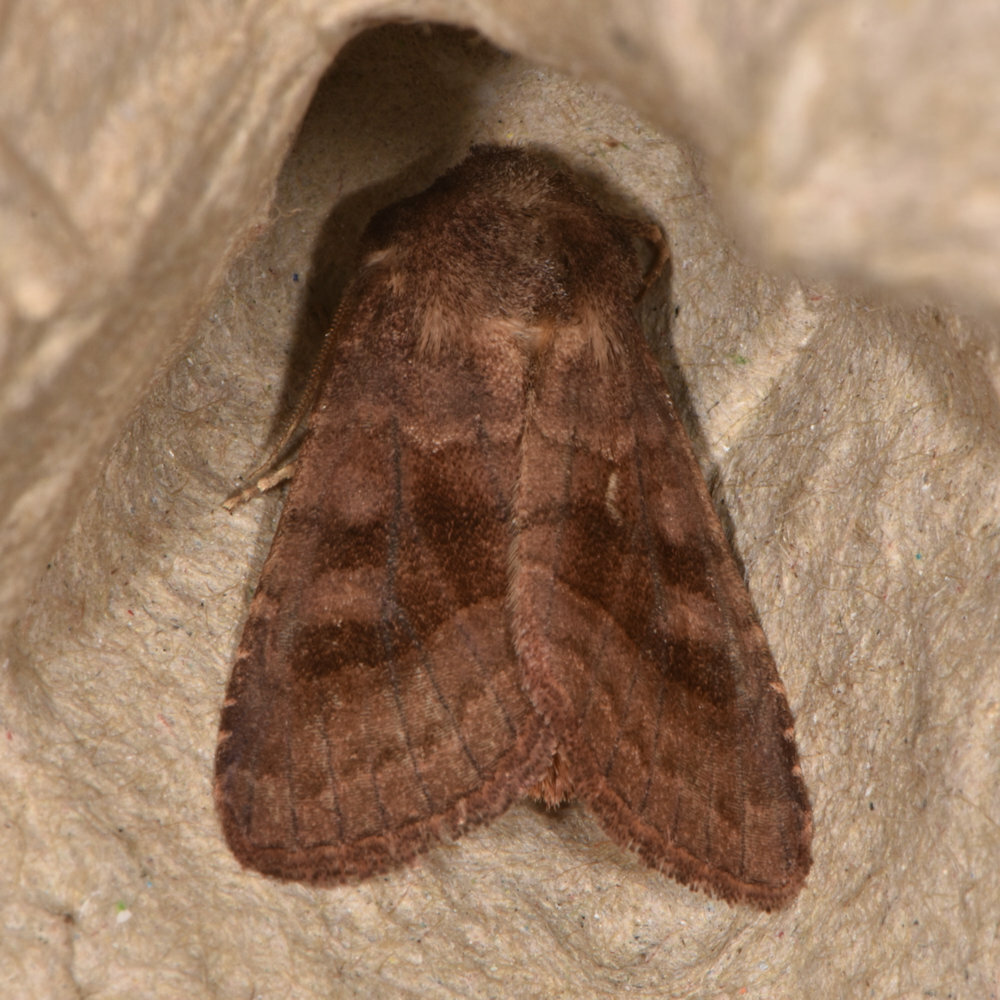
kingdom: Animalia
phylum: Arthropoda
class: Insecta
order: Lepidoptera
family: Noctuidae
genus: Nephelodes
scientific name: Nephelodes minians
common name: Bronzed cutworm
